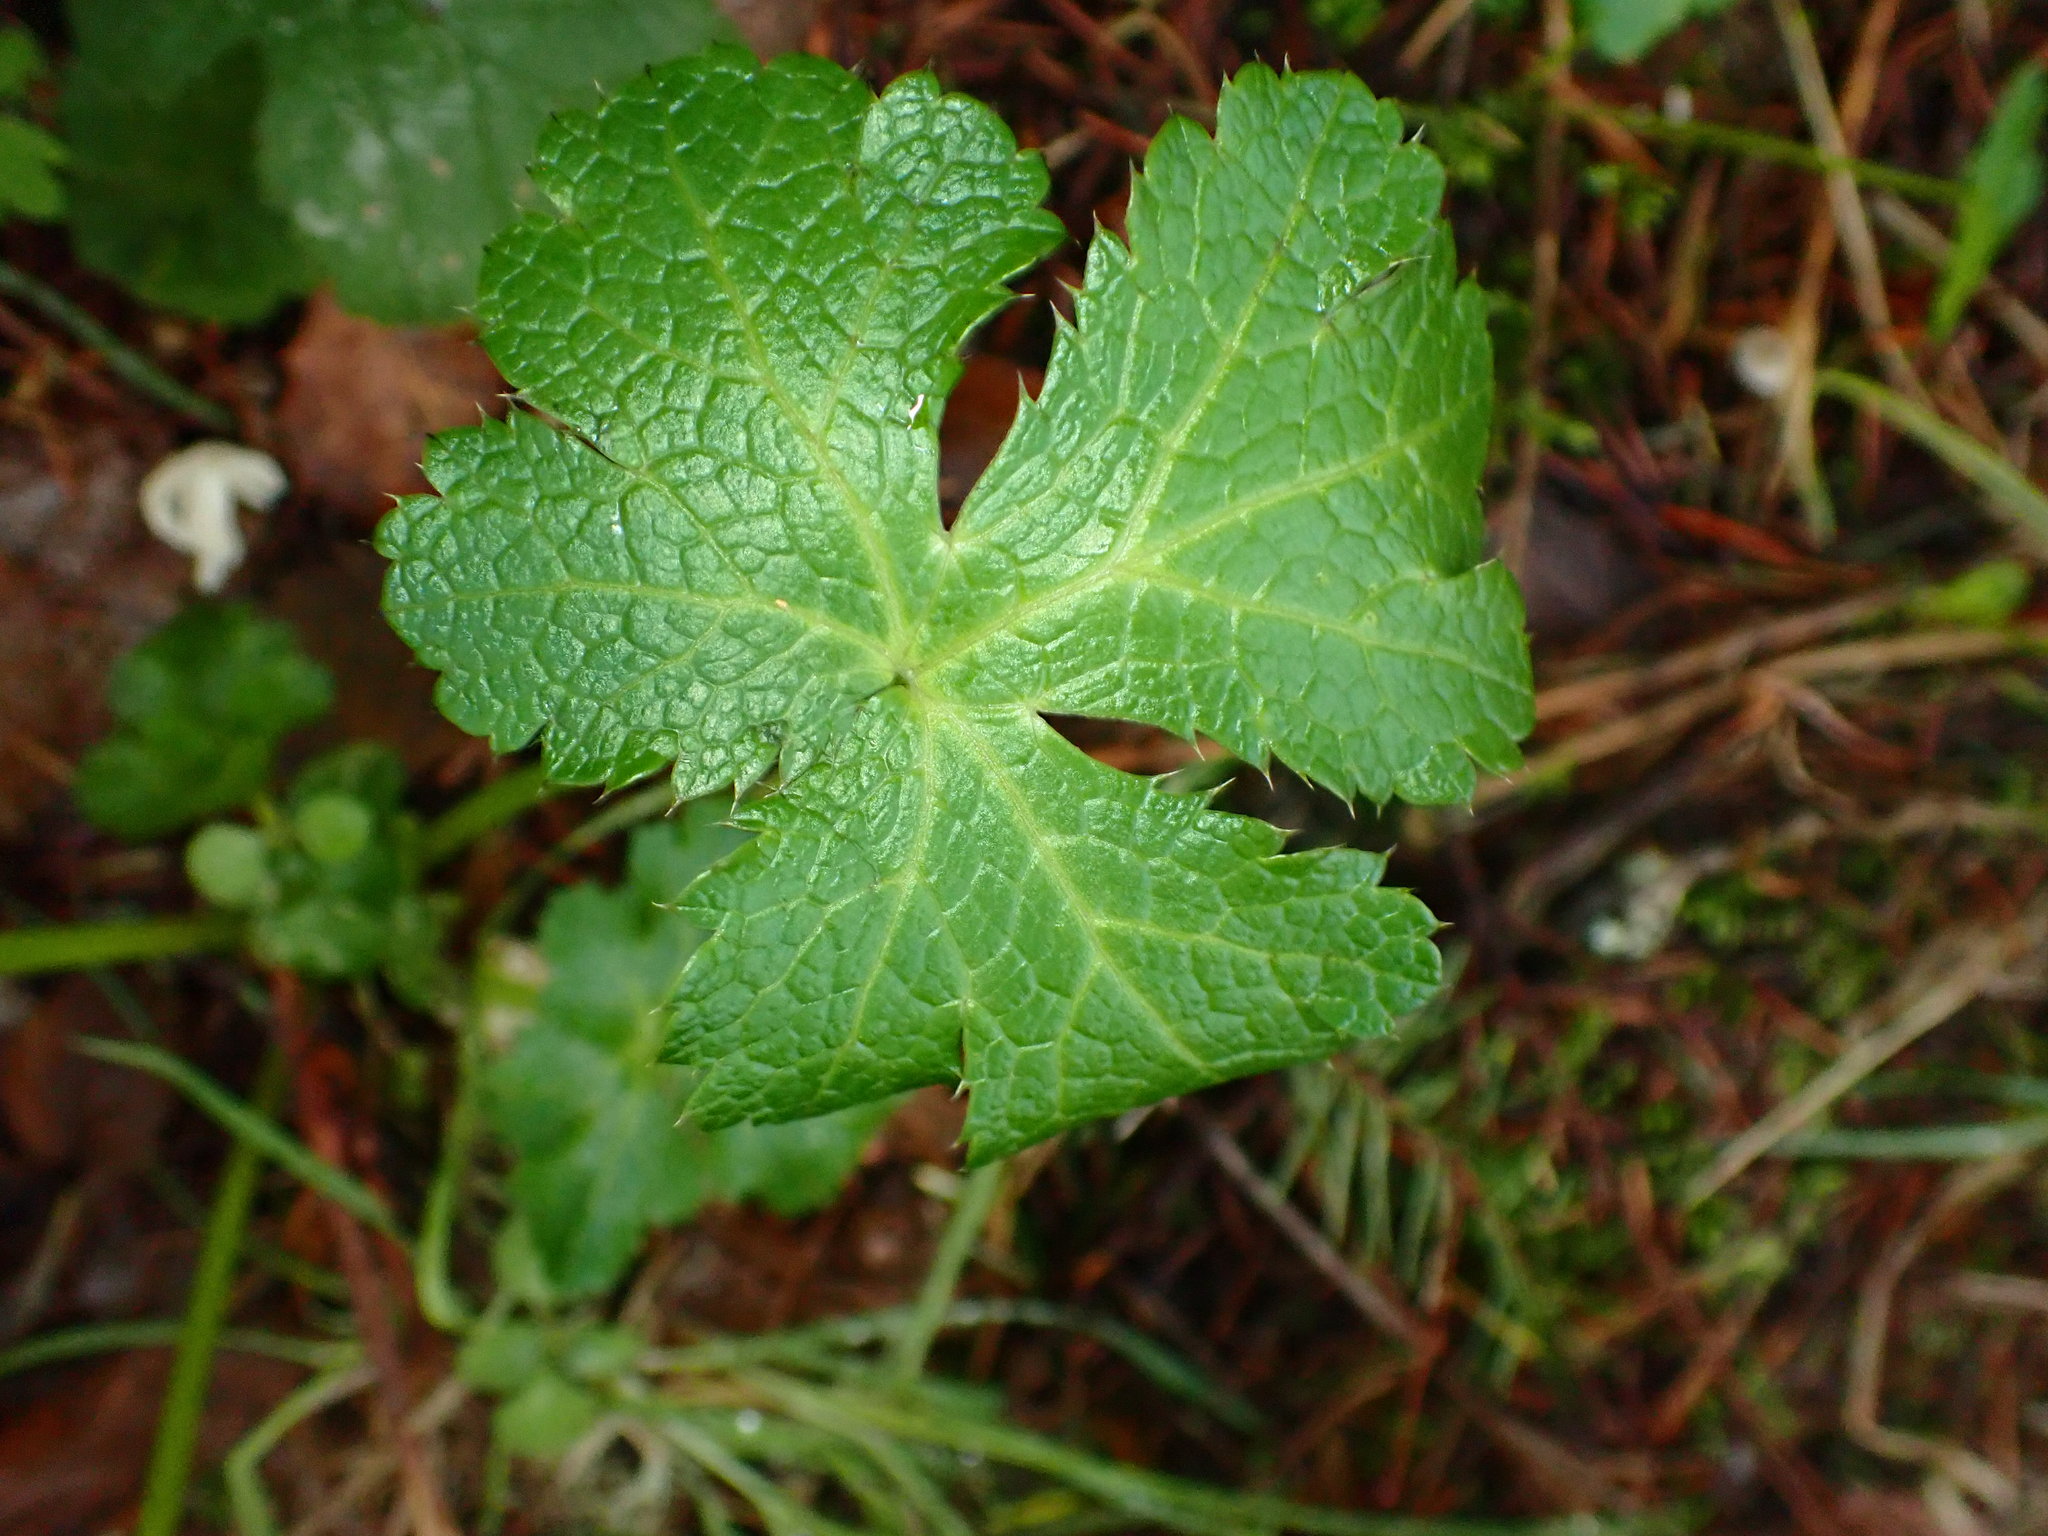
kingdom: Plantae
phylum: Tracheophyta
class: Magnoliopsida
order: Apiales
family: Apiaceae
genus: Sanicula
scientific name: Sanicula crassicaulis
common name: Western snakeroot
